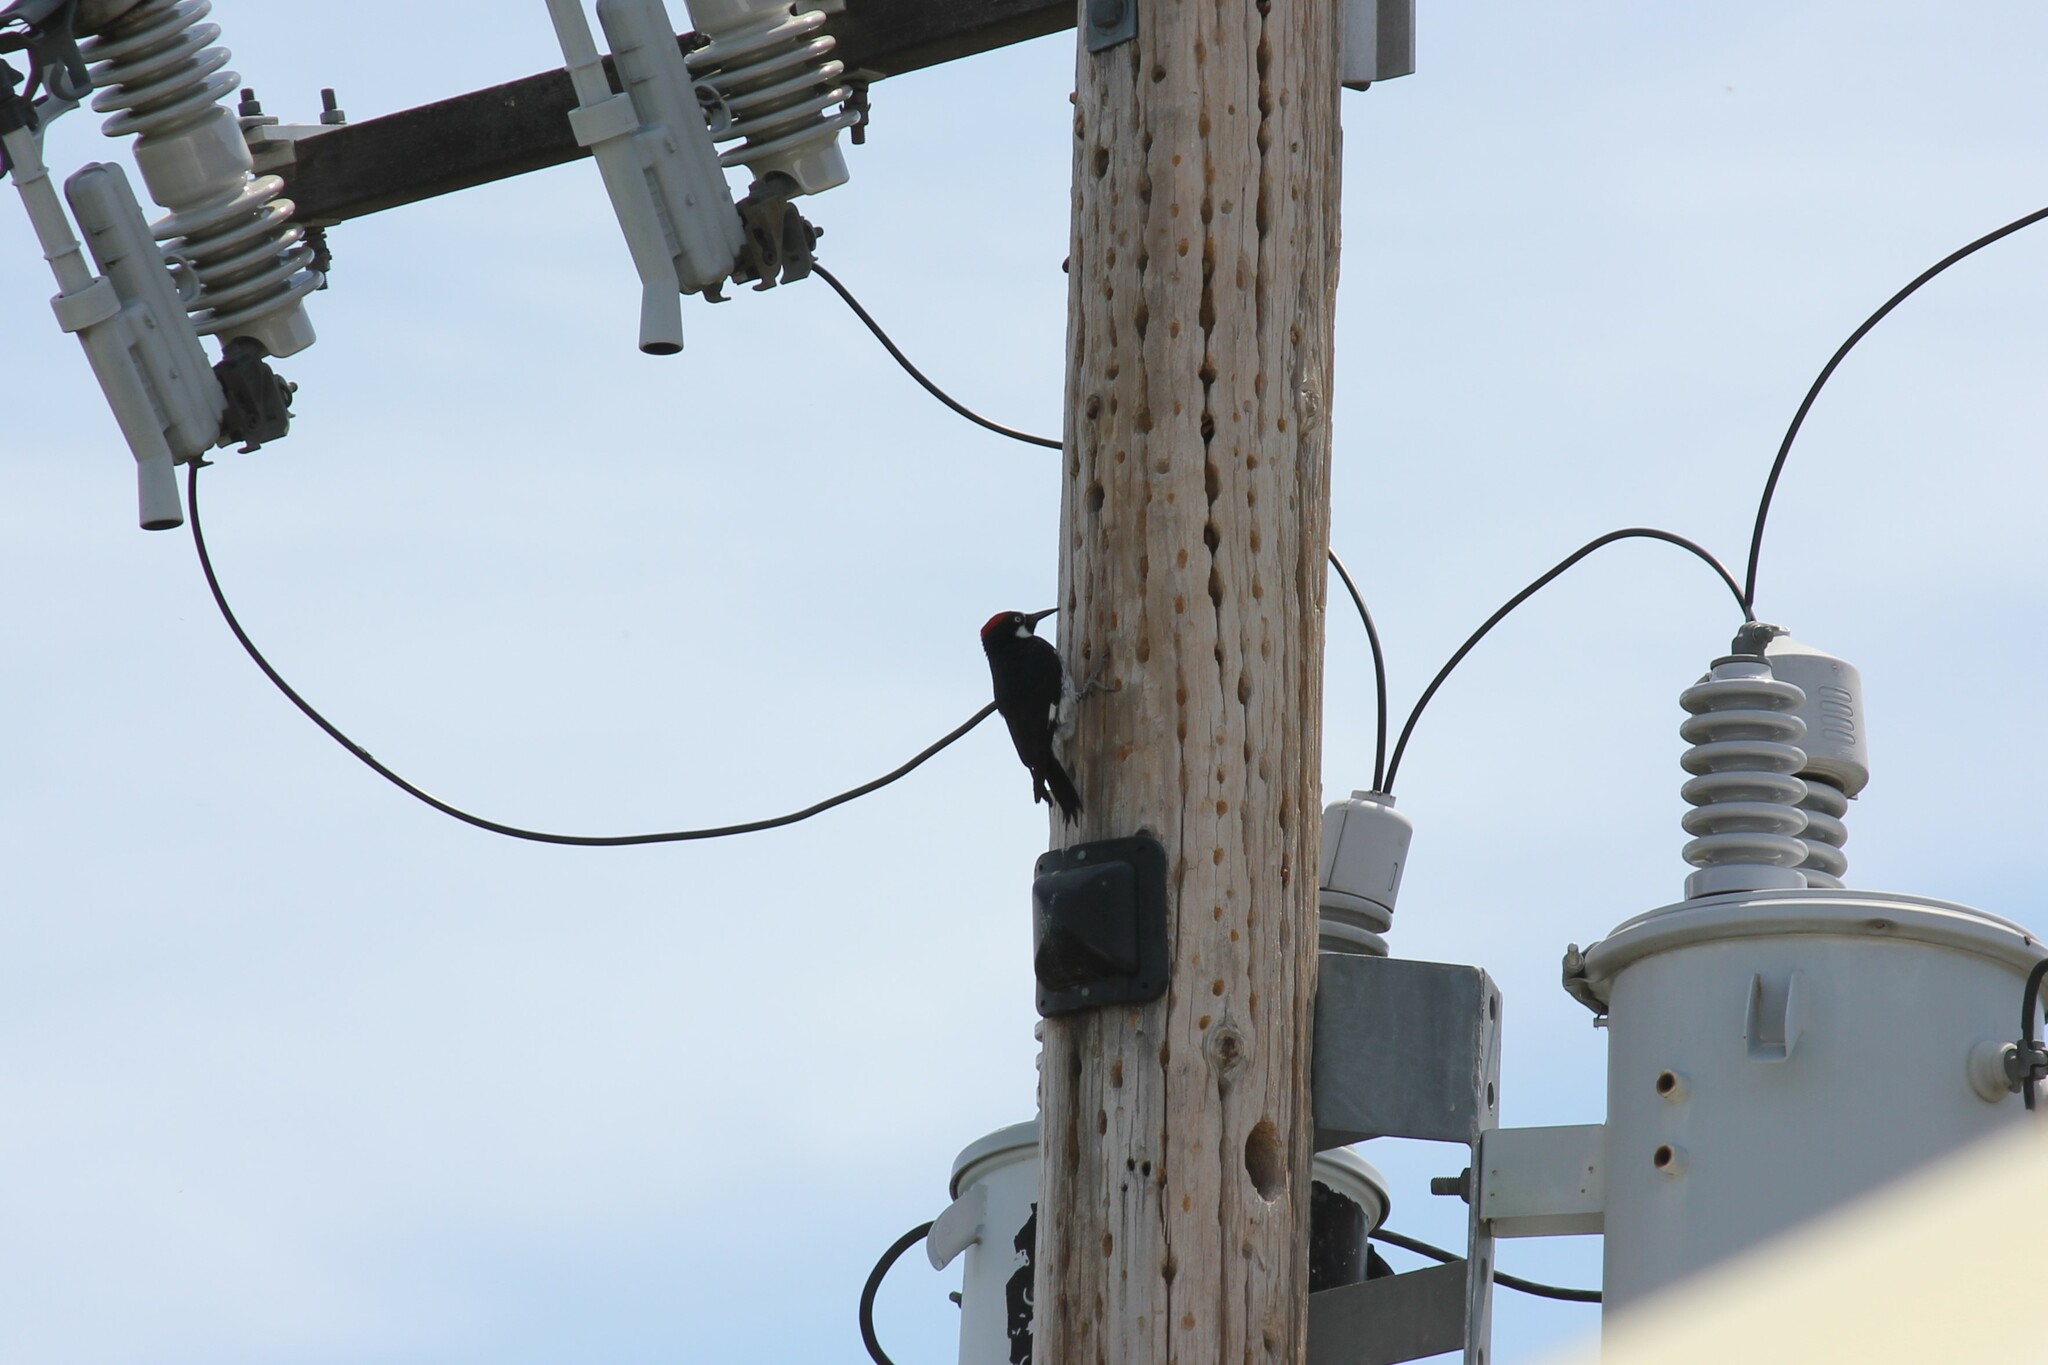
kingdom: Animalia
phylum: Chordata
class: Aves
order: Piciformes
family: Picidae
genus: Melanerpes
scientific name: Melanerpes formicivorus
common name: Acorn woodpecker
